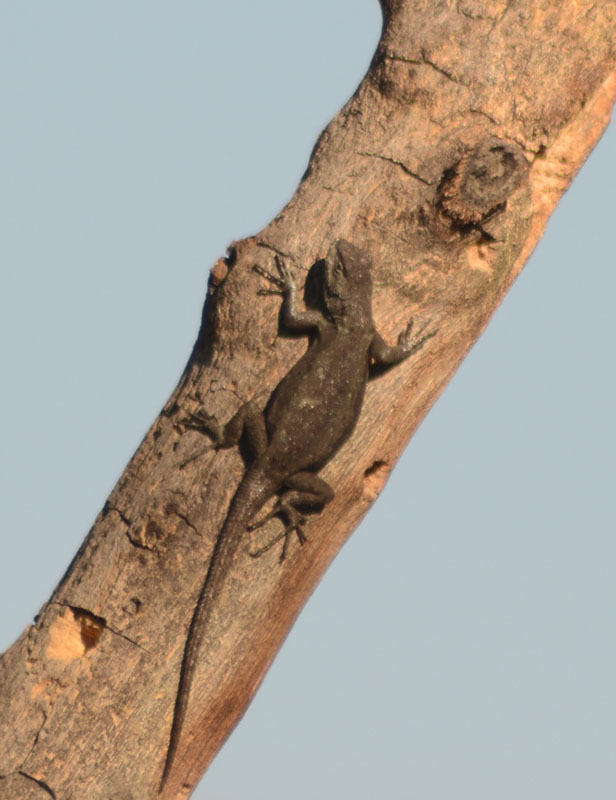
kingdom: Animalia
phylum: Chordata
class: Squamata
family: Phrynosomatidae
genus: Sceloporus
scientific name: Sceloporus grammicus
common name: Mesquite lizard
